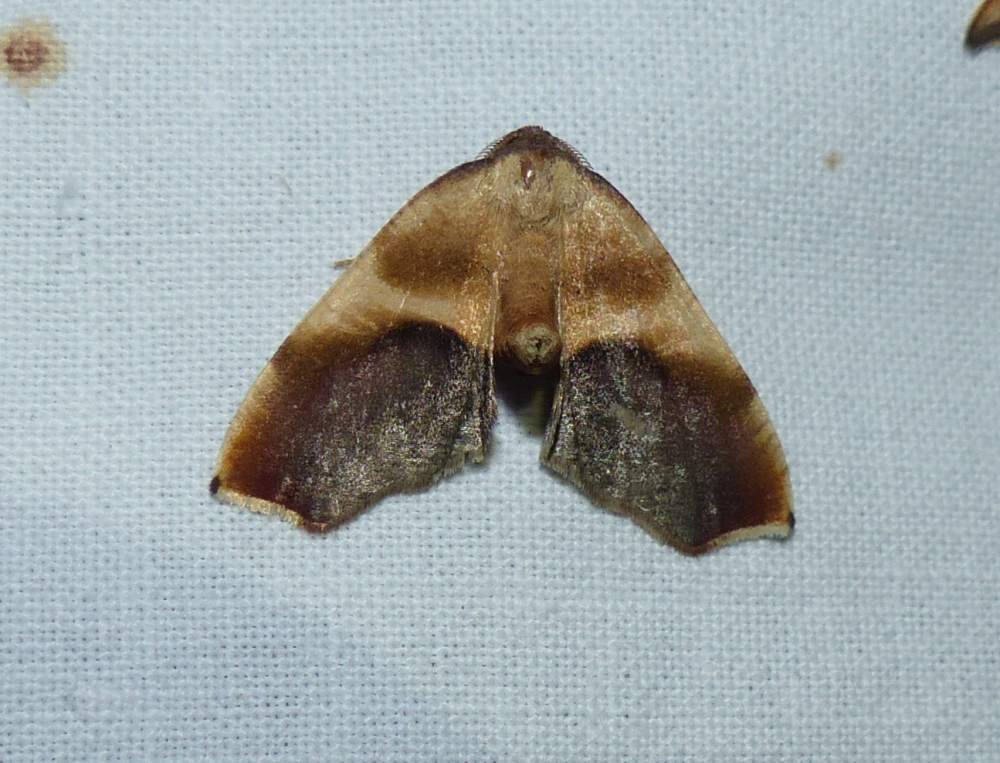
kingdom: Animalia
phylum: Arthropoda
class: Insecta
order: Lepidoptera
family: Geometridae
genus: Plagodis
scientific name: Plagodis kuetzingi
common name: Purple plagodis
